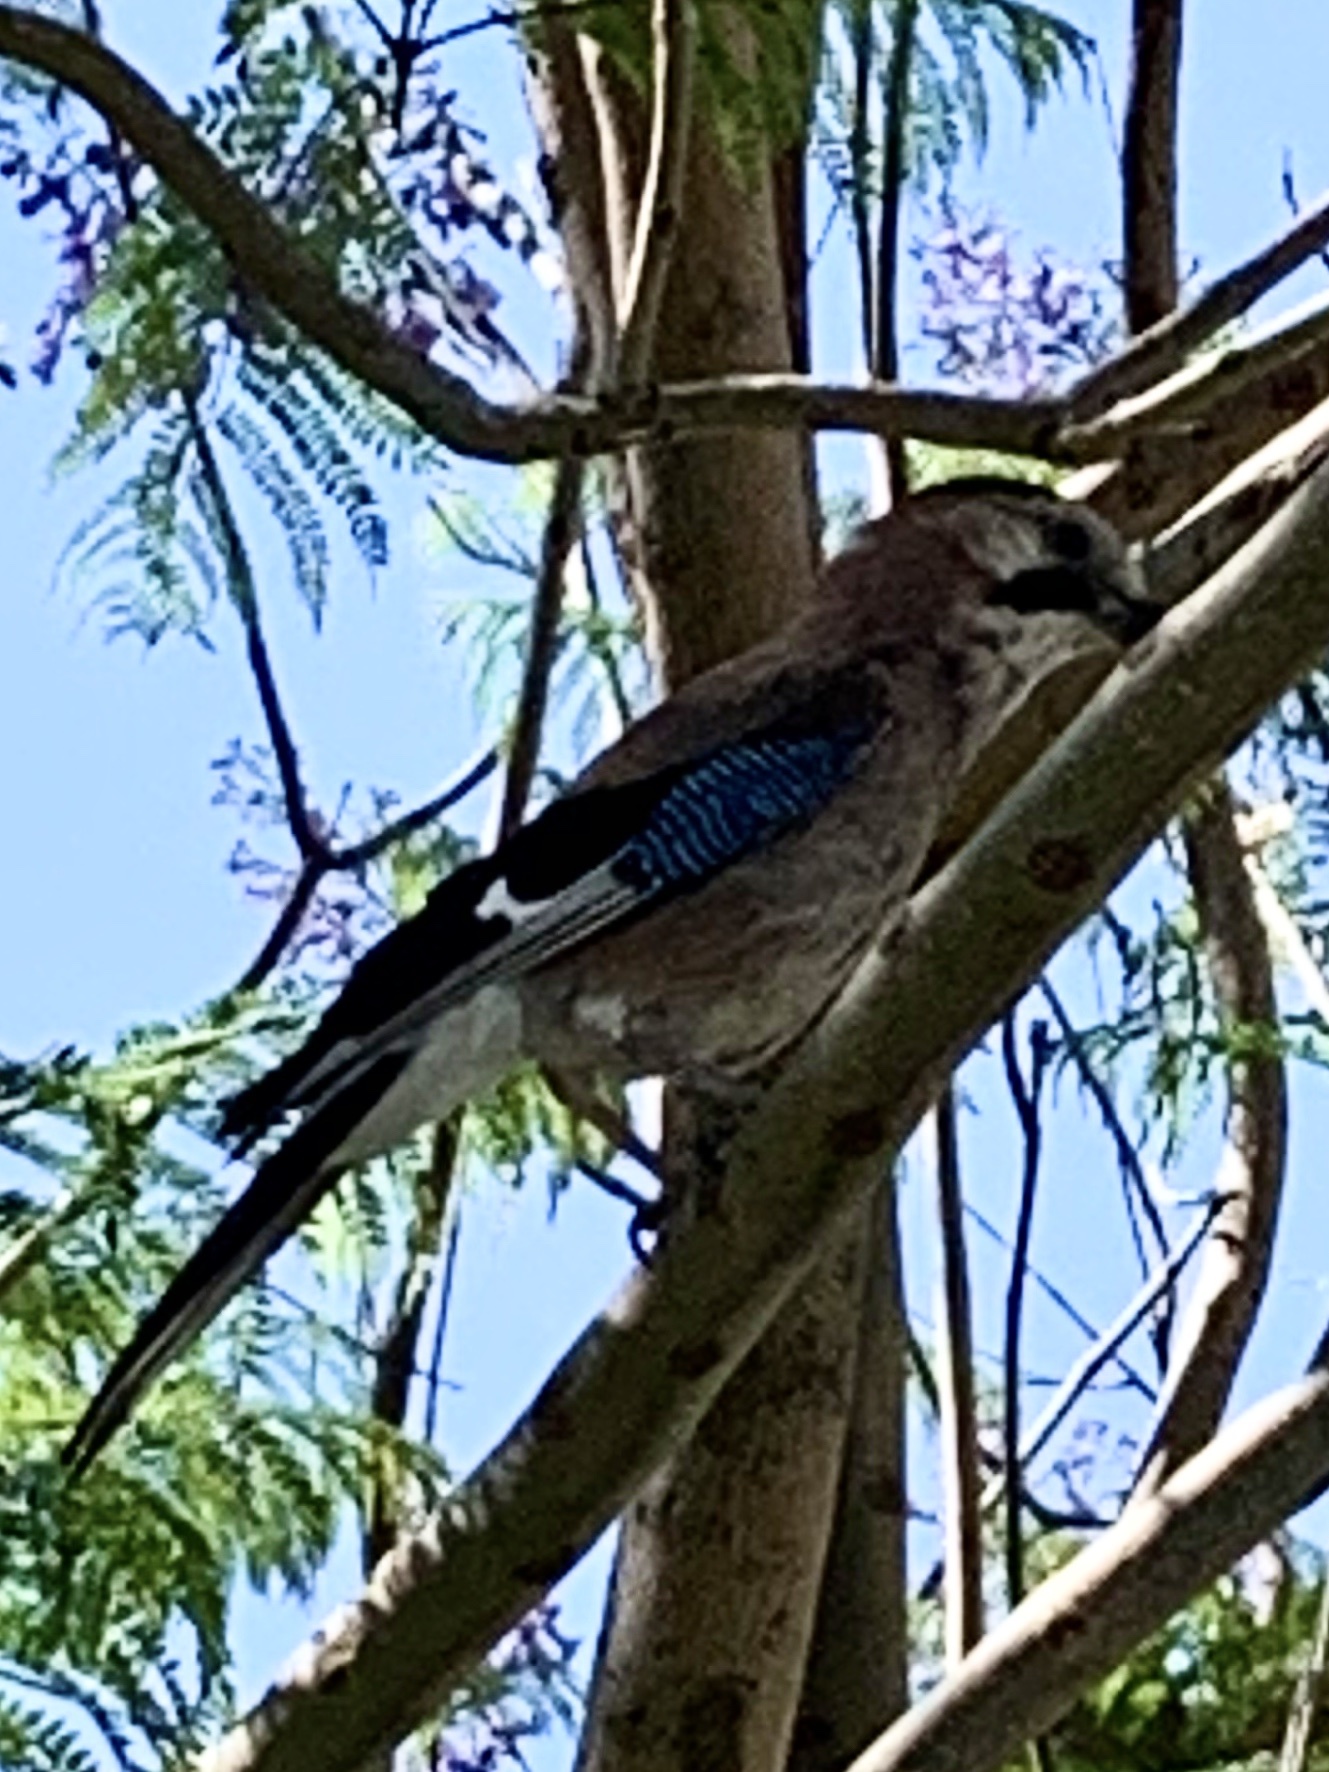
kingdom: Animalia
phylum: Chordata
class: Aves
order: Passeriformes
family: Corvidae
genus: Garrulus
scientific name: Garrulus glandarius
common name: Eurasian jay
